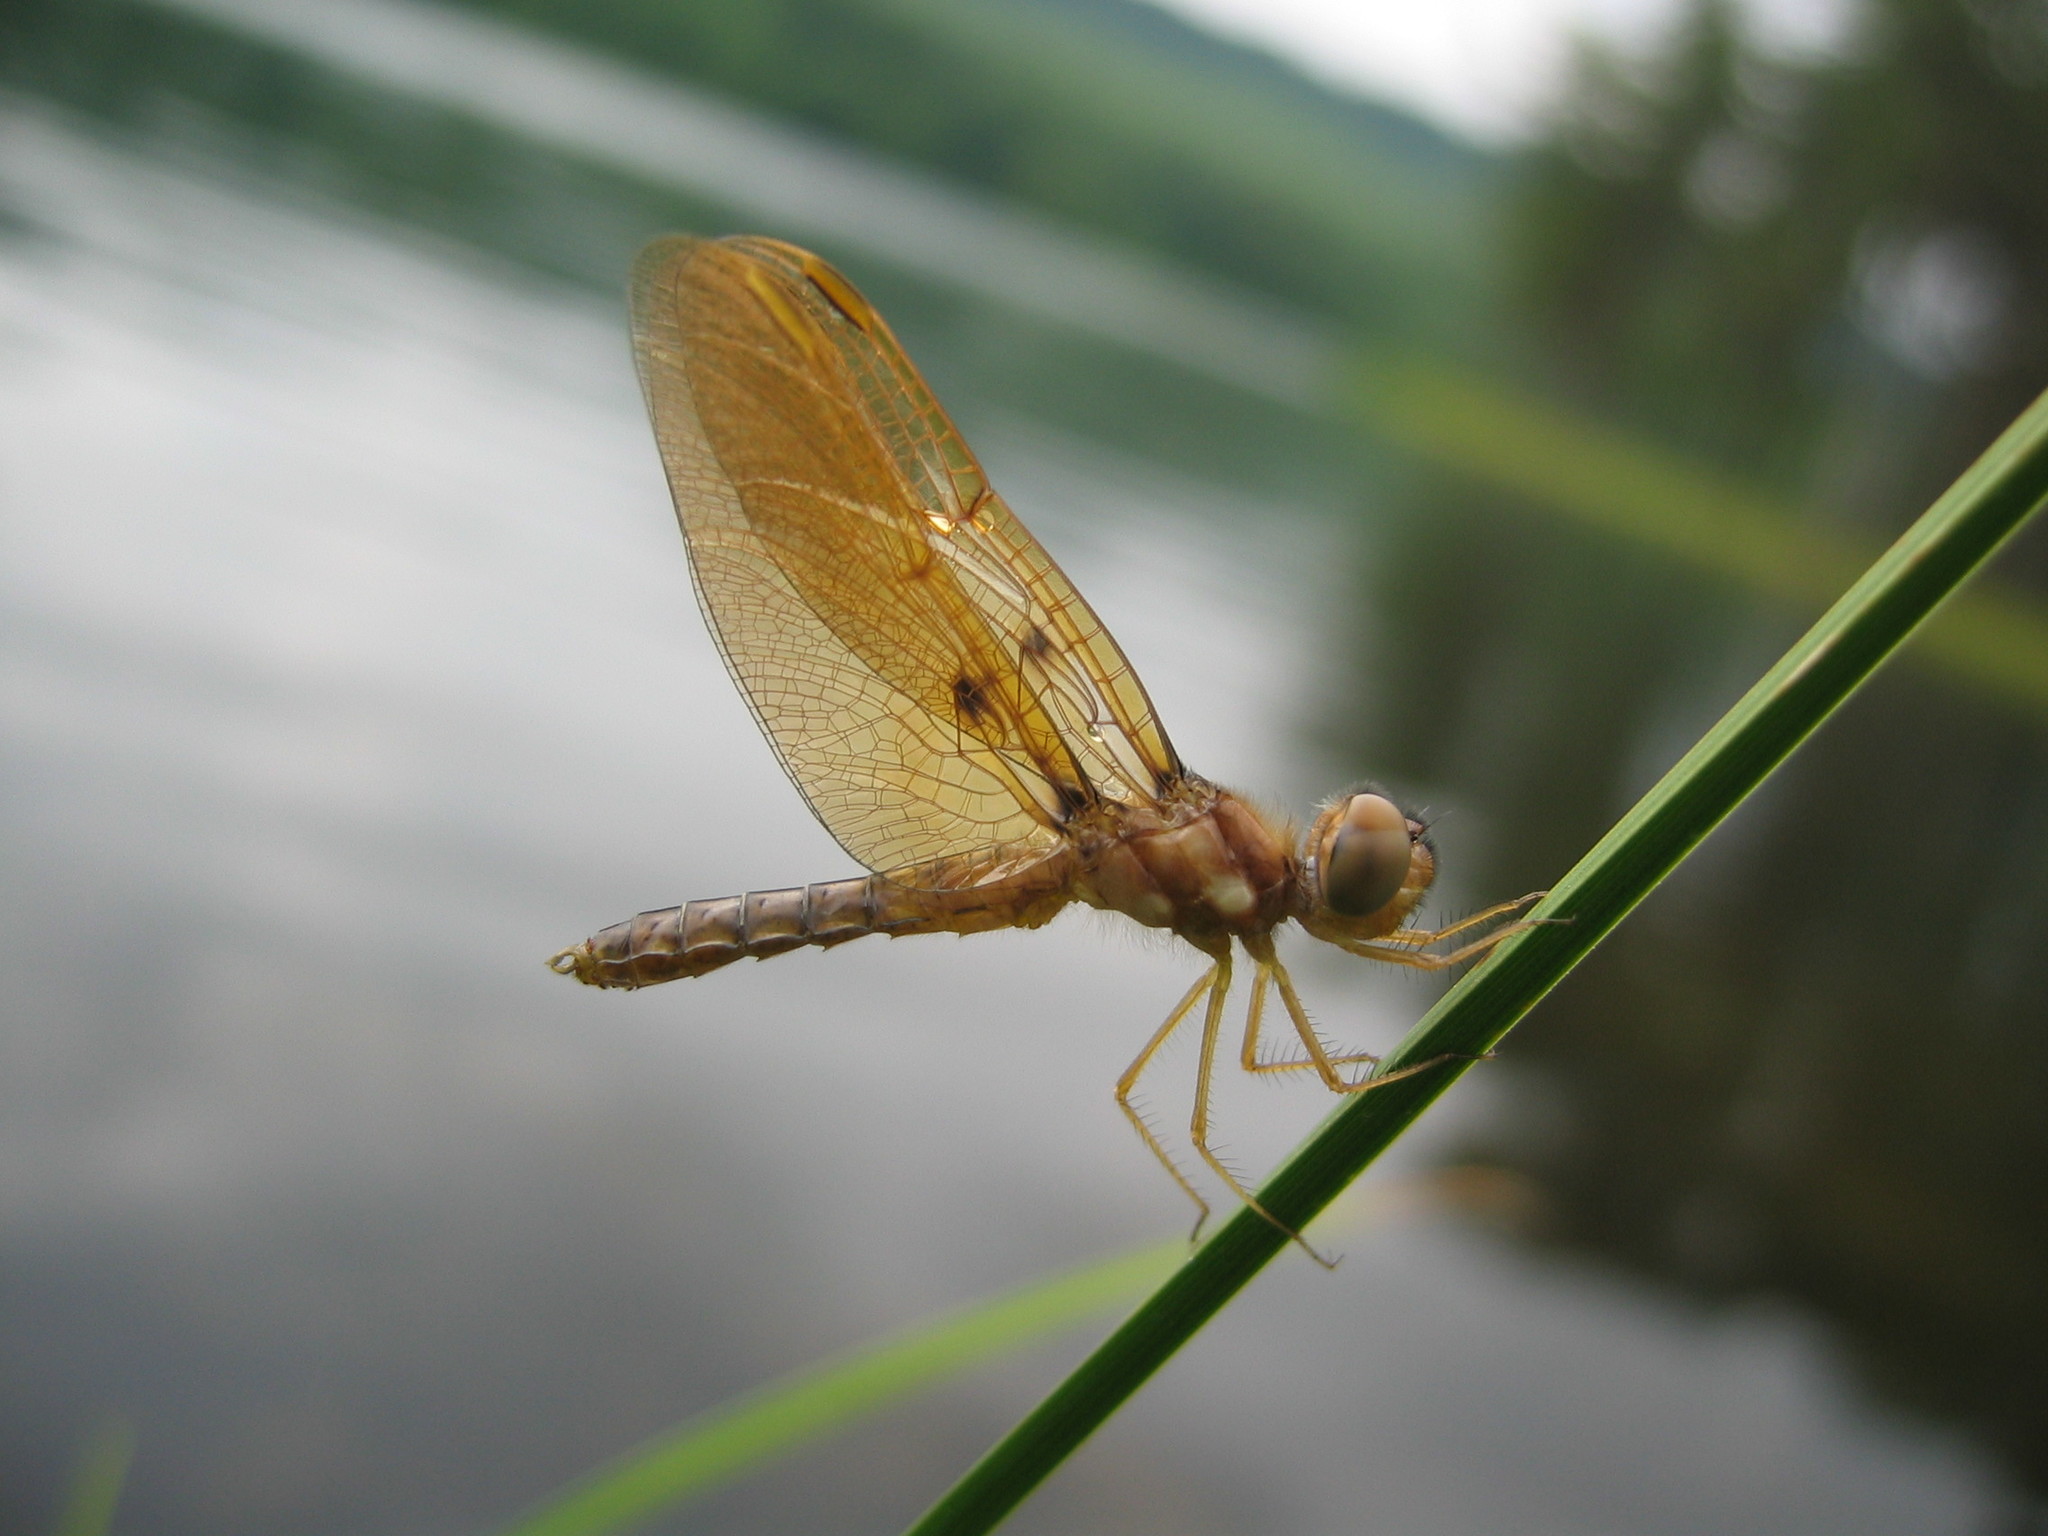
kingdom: Animalia
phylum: Arthropoda
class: Insecta
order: Odonata
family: Libellulidae
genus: Perithemis
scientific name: Perithemis tenera
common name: Eastern amberwing
